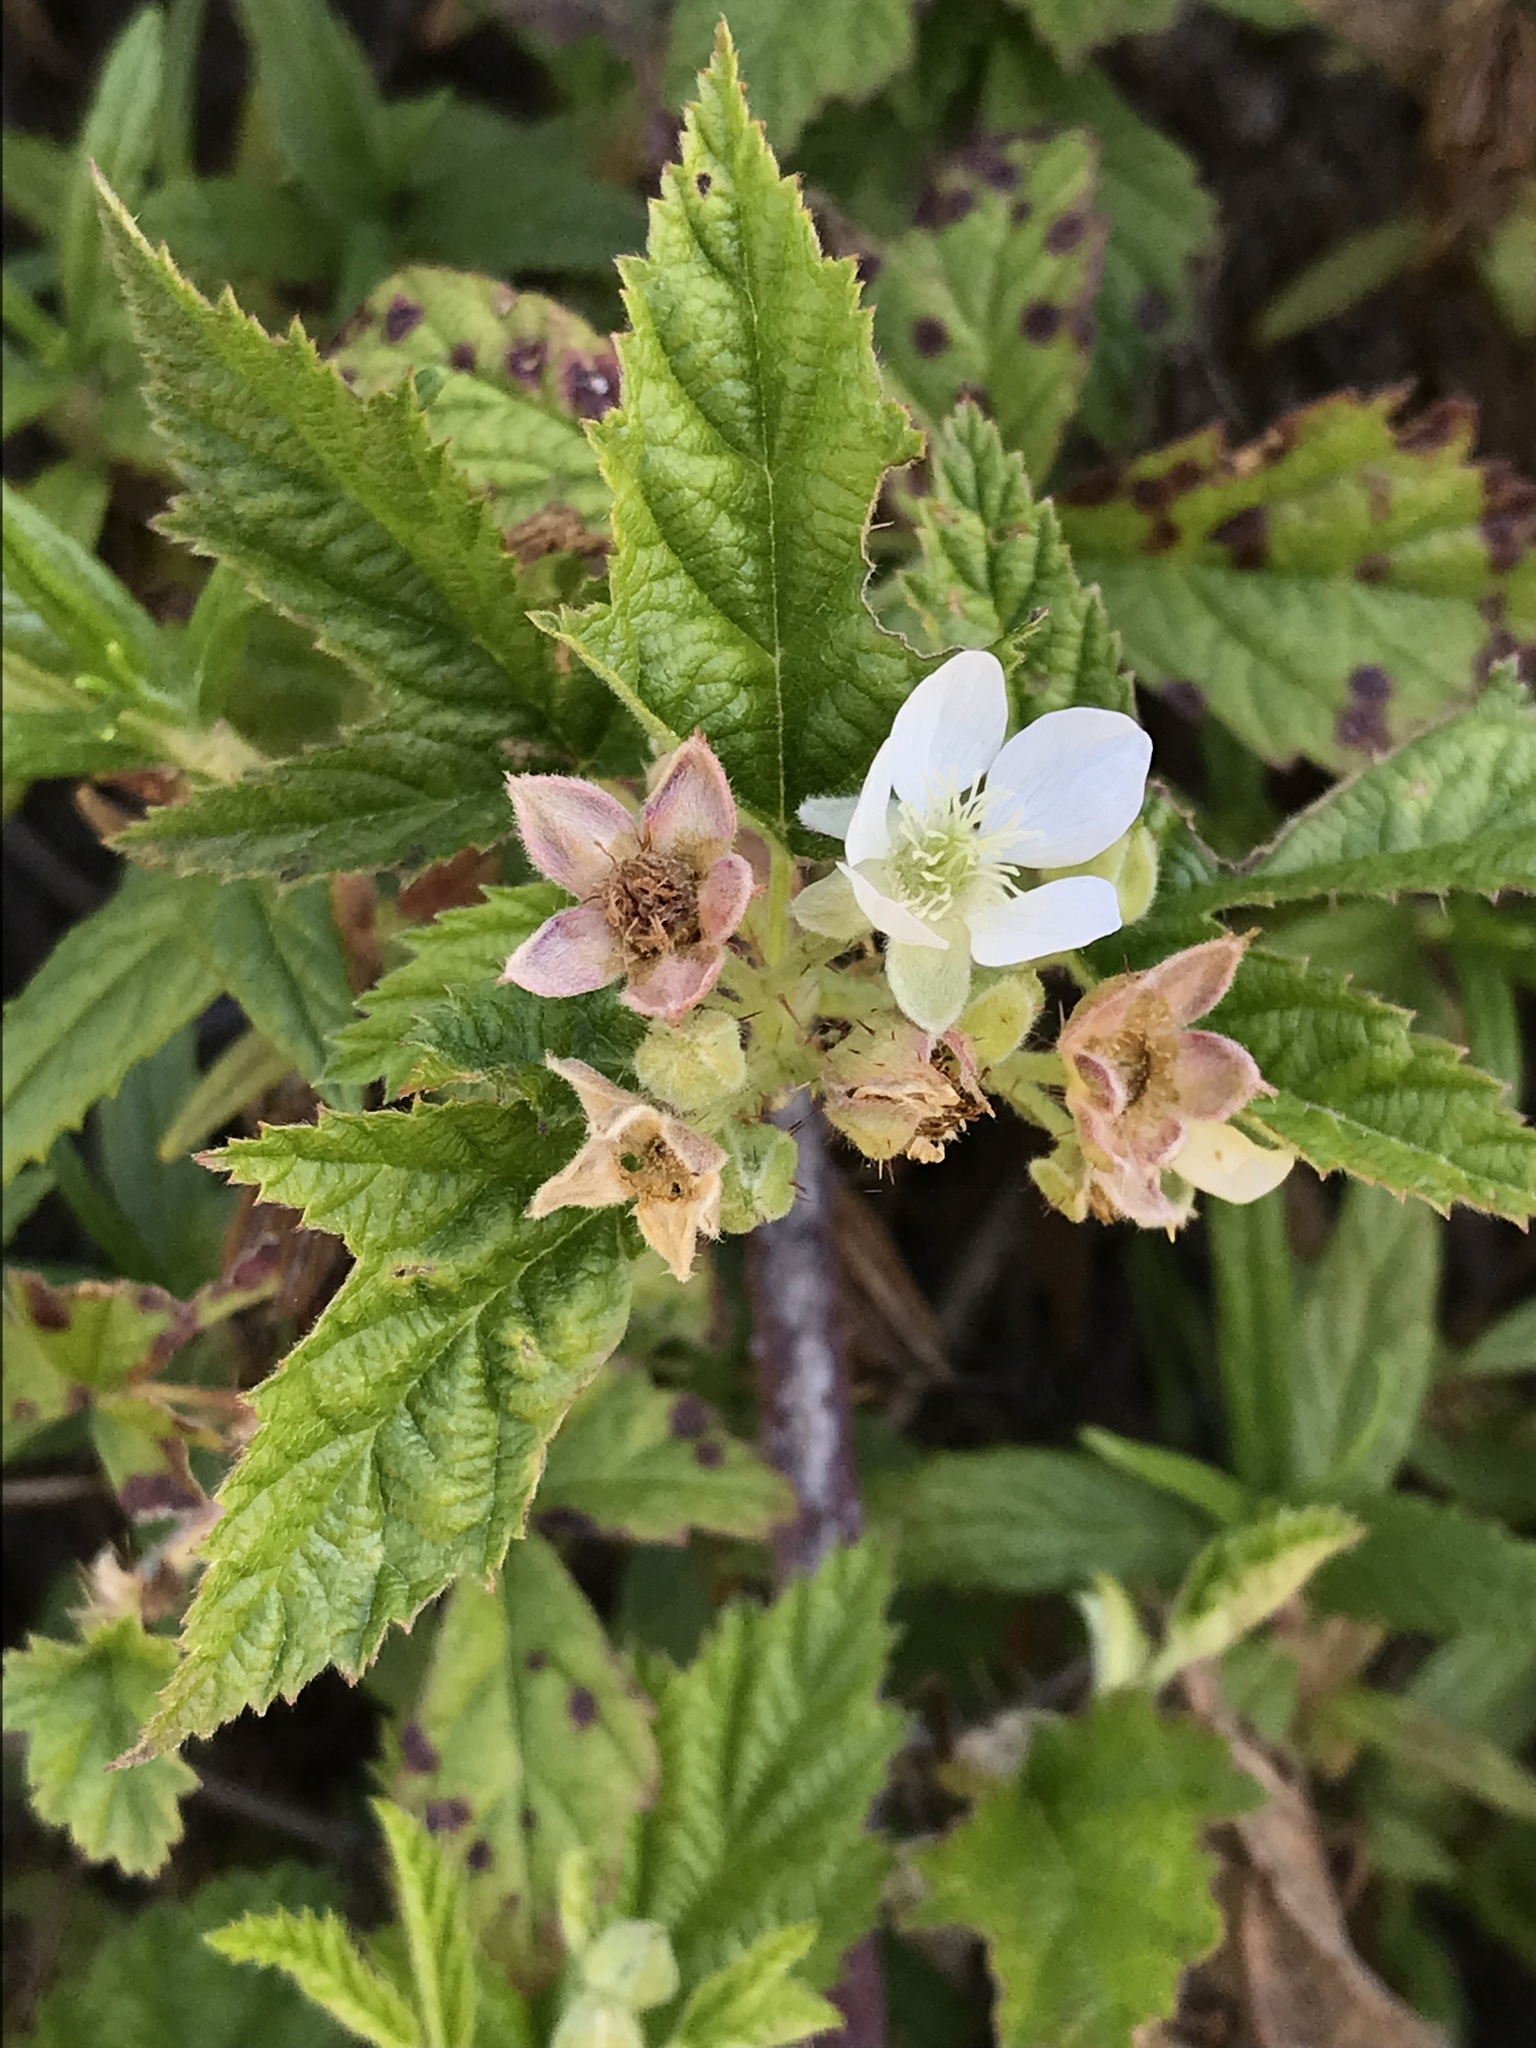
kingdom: Plantae
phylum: Tracheophyta
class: Magnoliopsida
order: Rosales
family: Rosaceae
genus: Rubus
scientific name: Rubus ursinus
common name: Pacific blackberry
